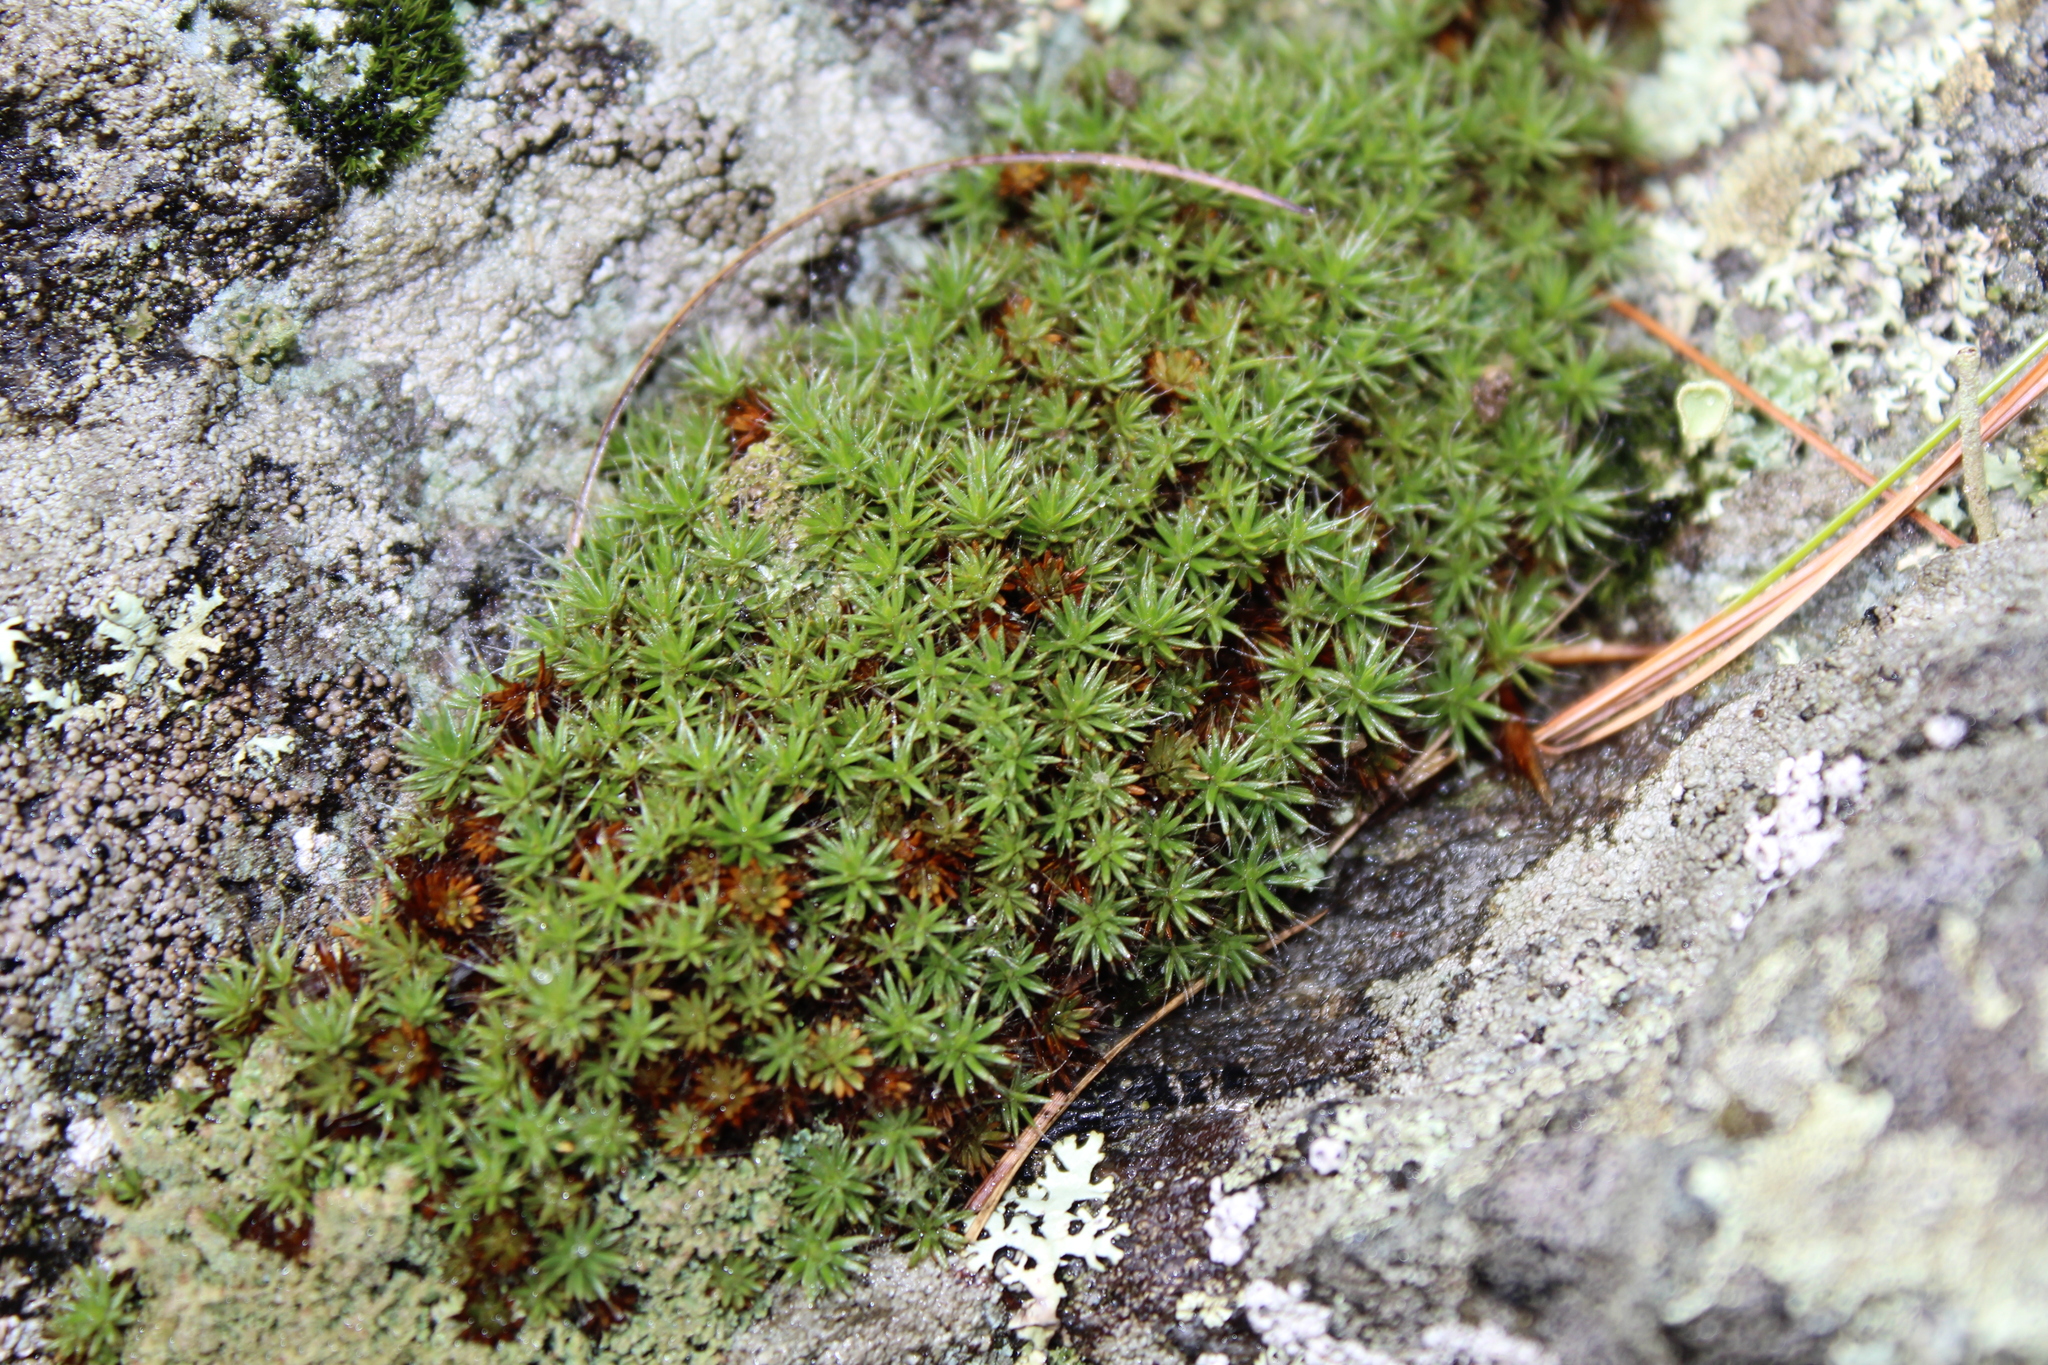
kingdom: Plantae
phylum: Bryophyta
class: Polytrichopsida
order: Polytrichales
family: Polytrichaceae
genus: Polytrichum
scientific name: Polytrichum piliferum
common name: Bristly haircap
